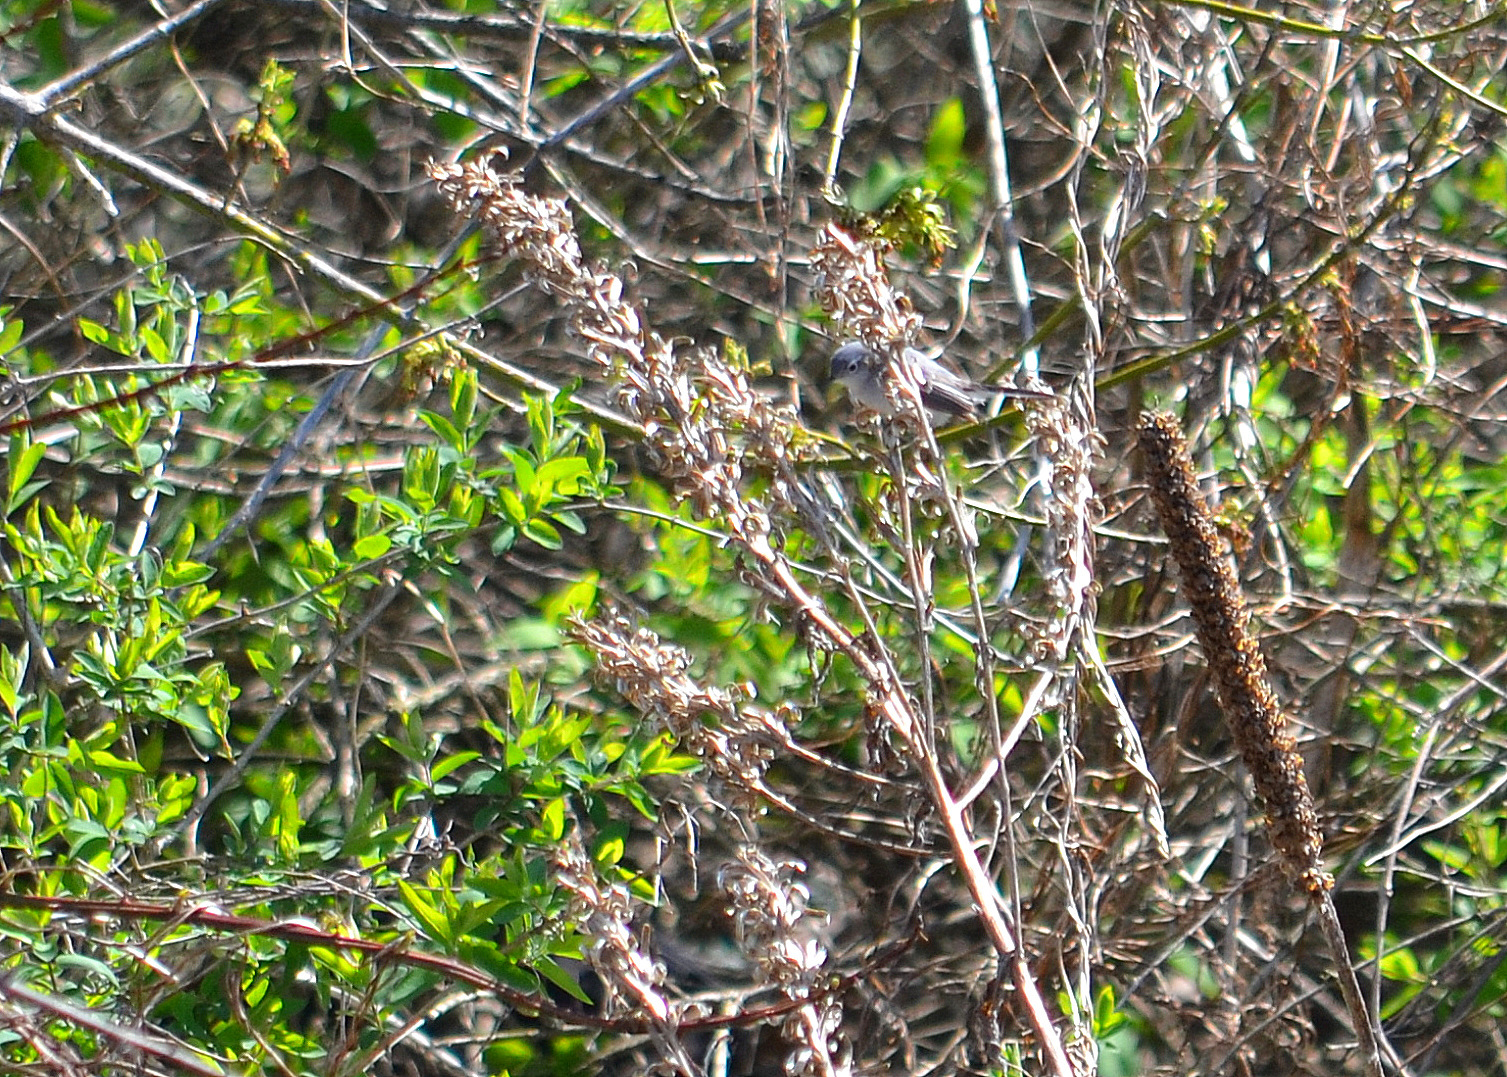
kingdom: Animalia
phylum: Chordata
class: Aves
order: Passeriformes
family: Polioptilidae
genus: Polioptila
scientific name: Polioptila caerulea
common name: Blue-gray gnatcatcher
